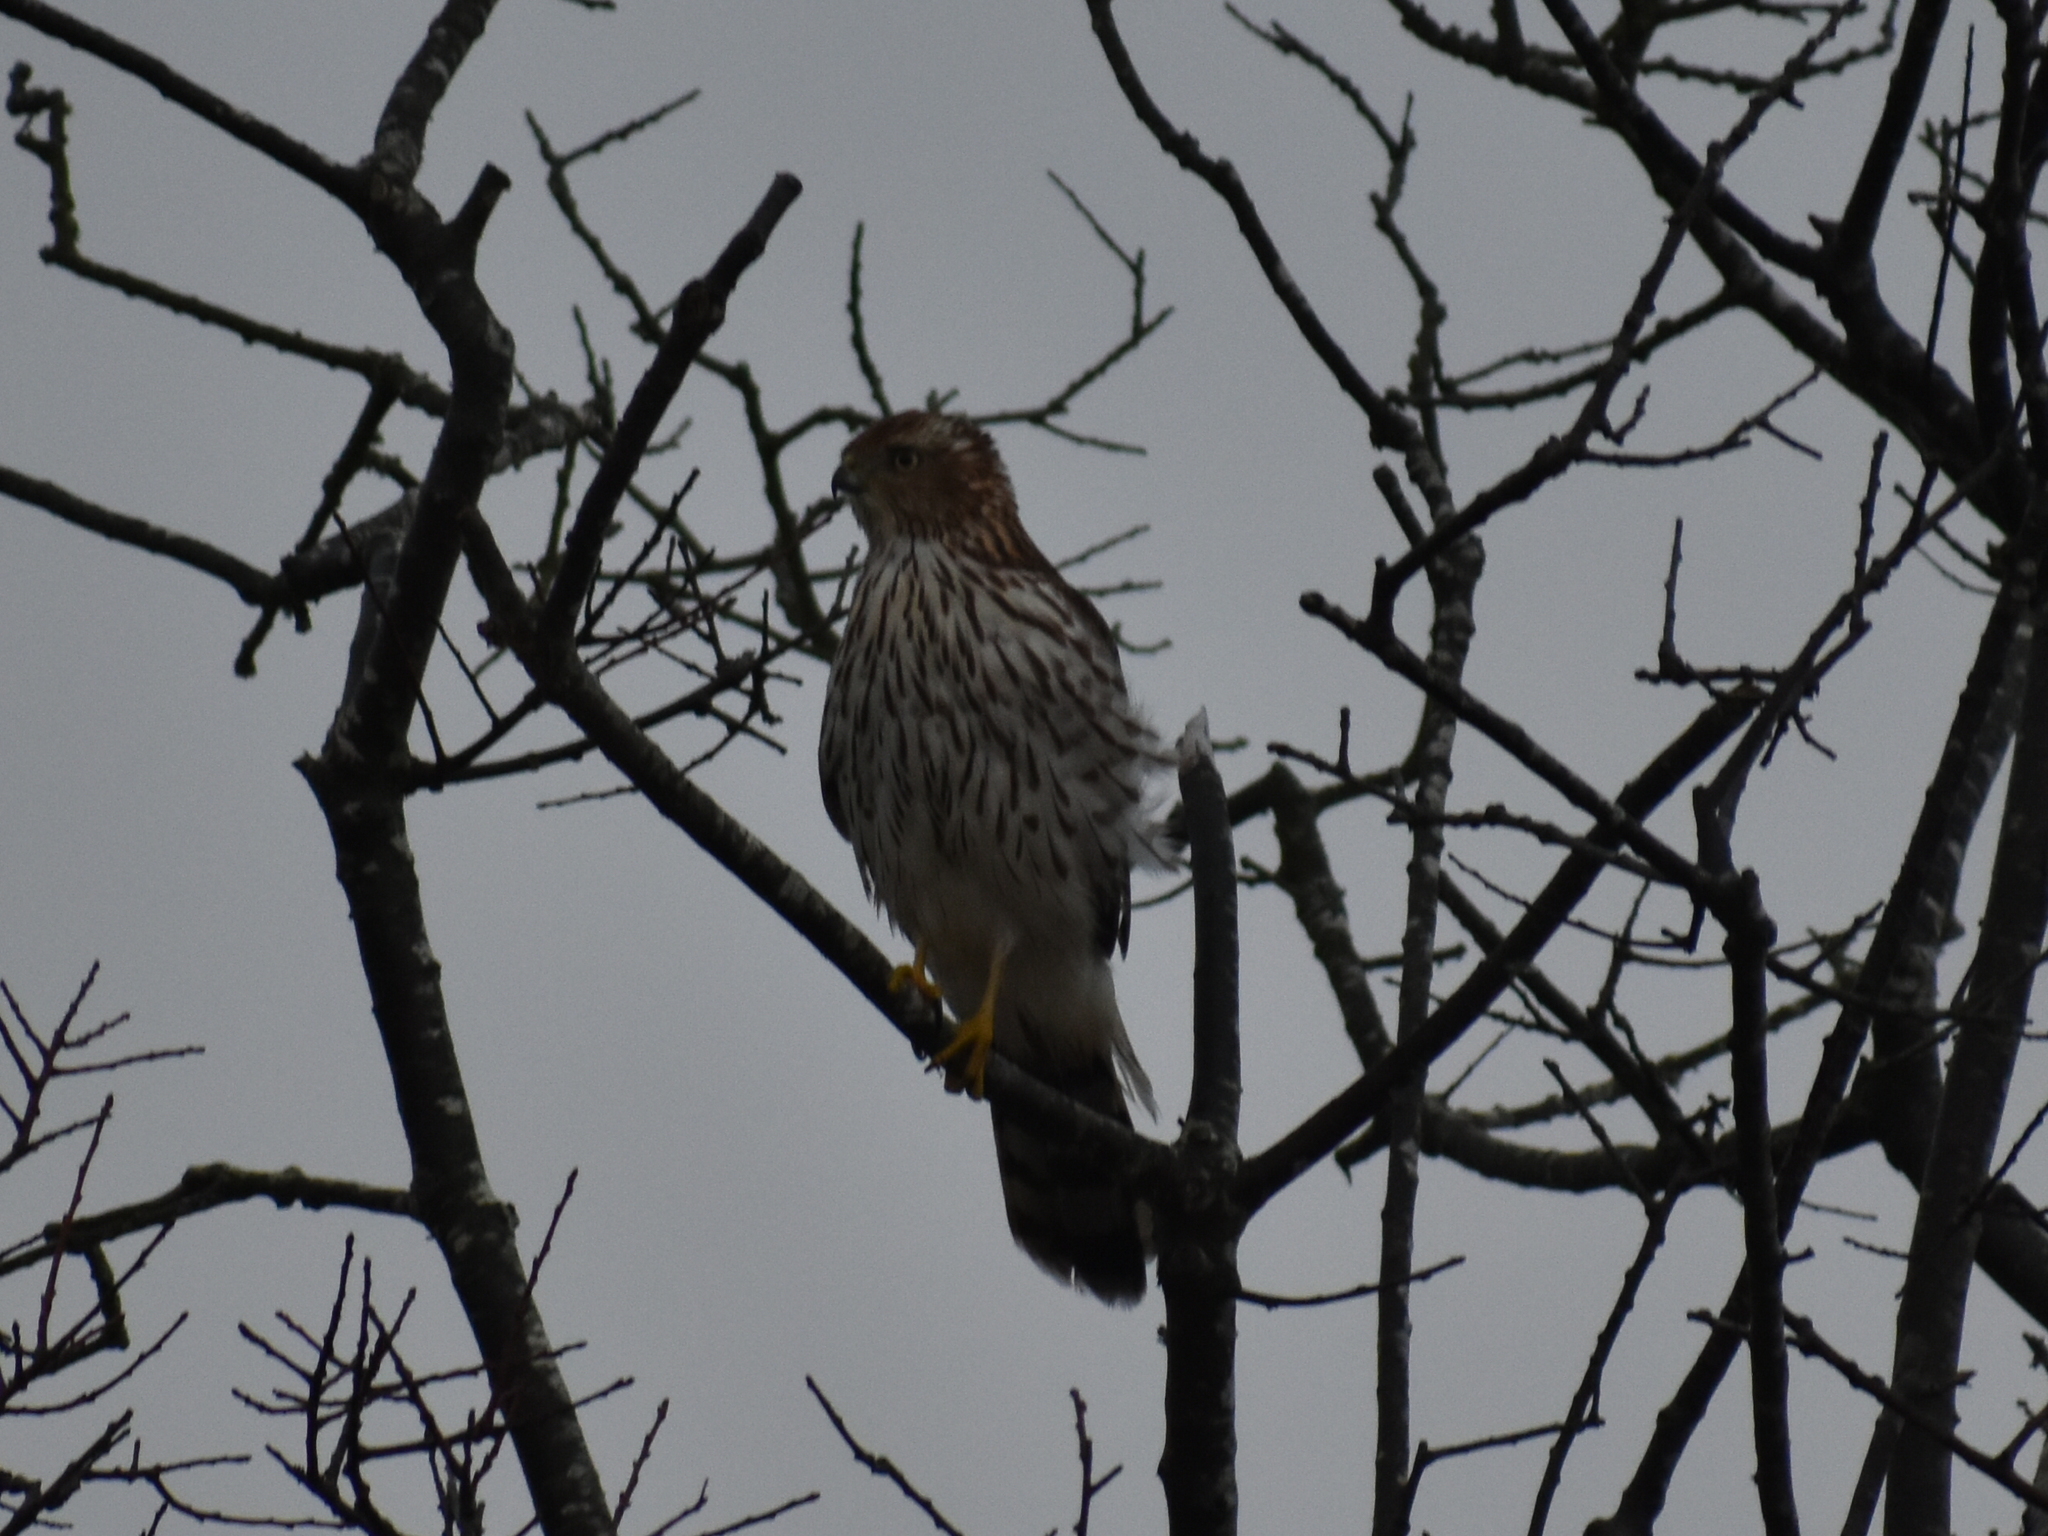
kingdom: Animalia
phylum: Chordata
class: Aves
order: Accipitriformes
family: Accipitridae
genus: Accipiter
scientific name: Accipiter cooperii
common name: Cooper's hawk
